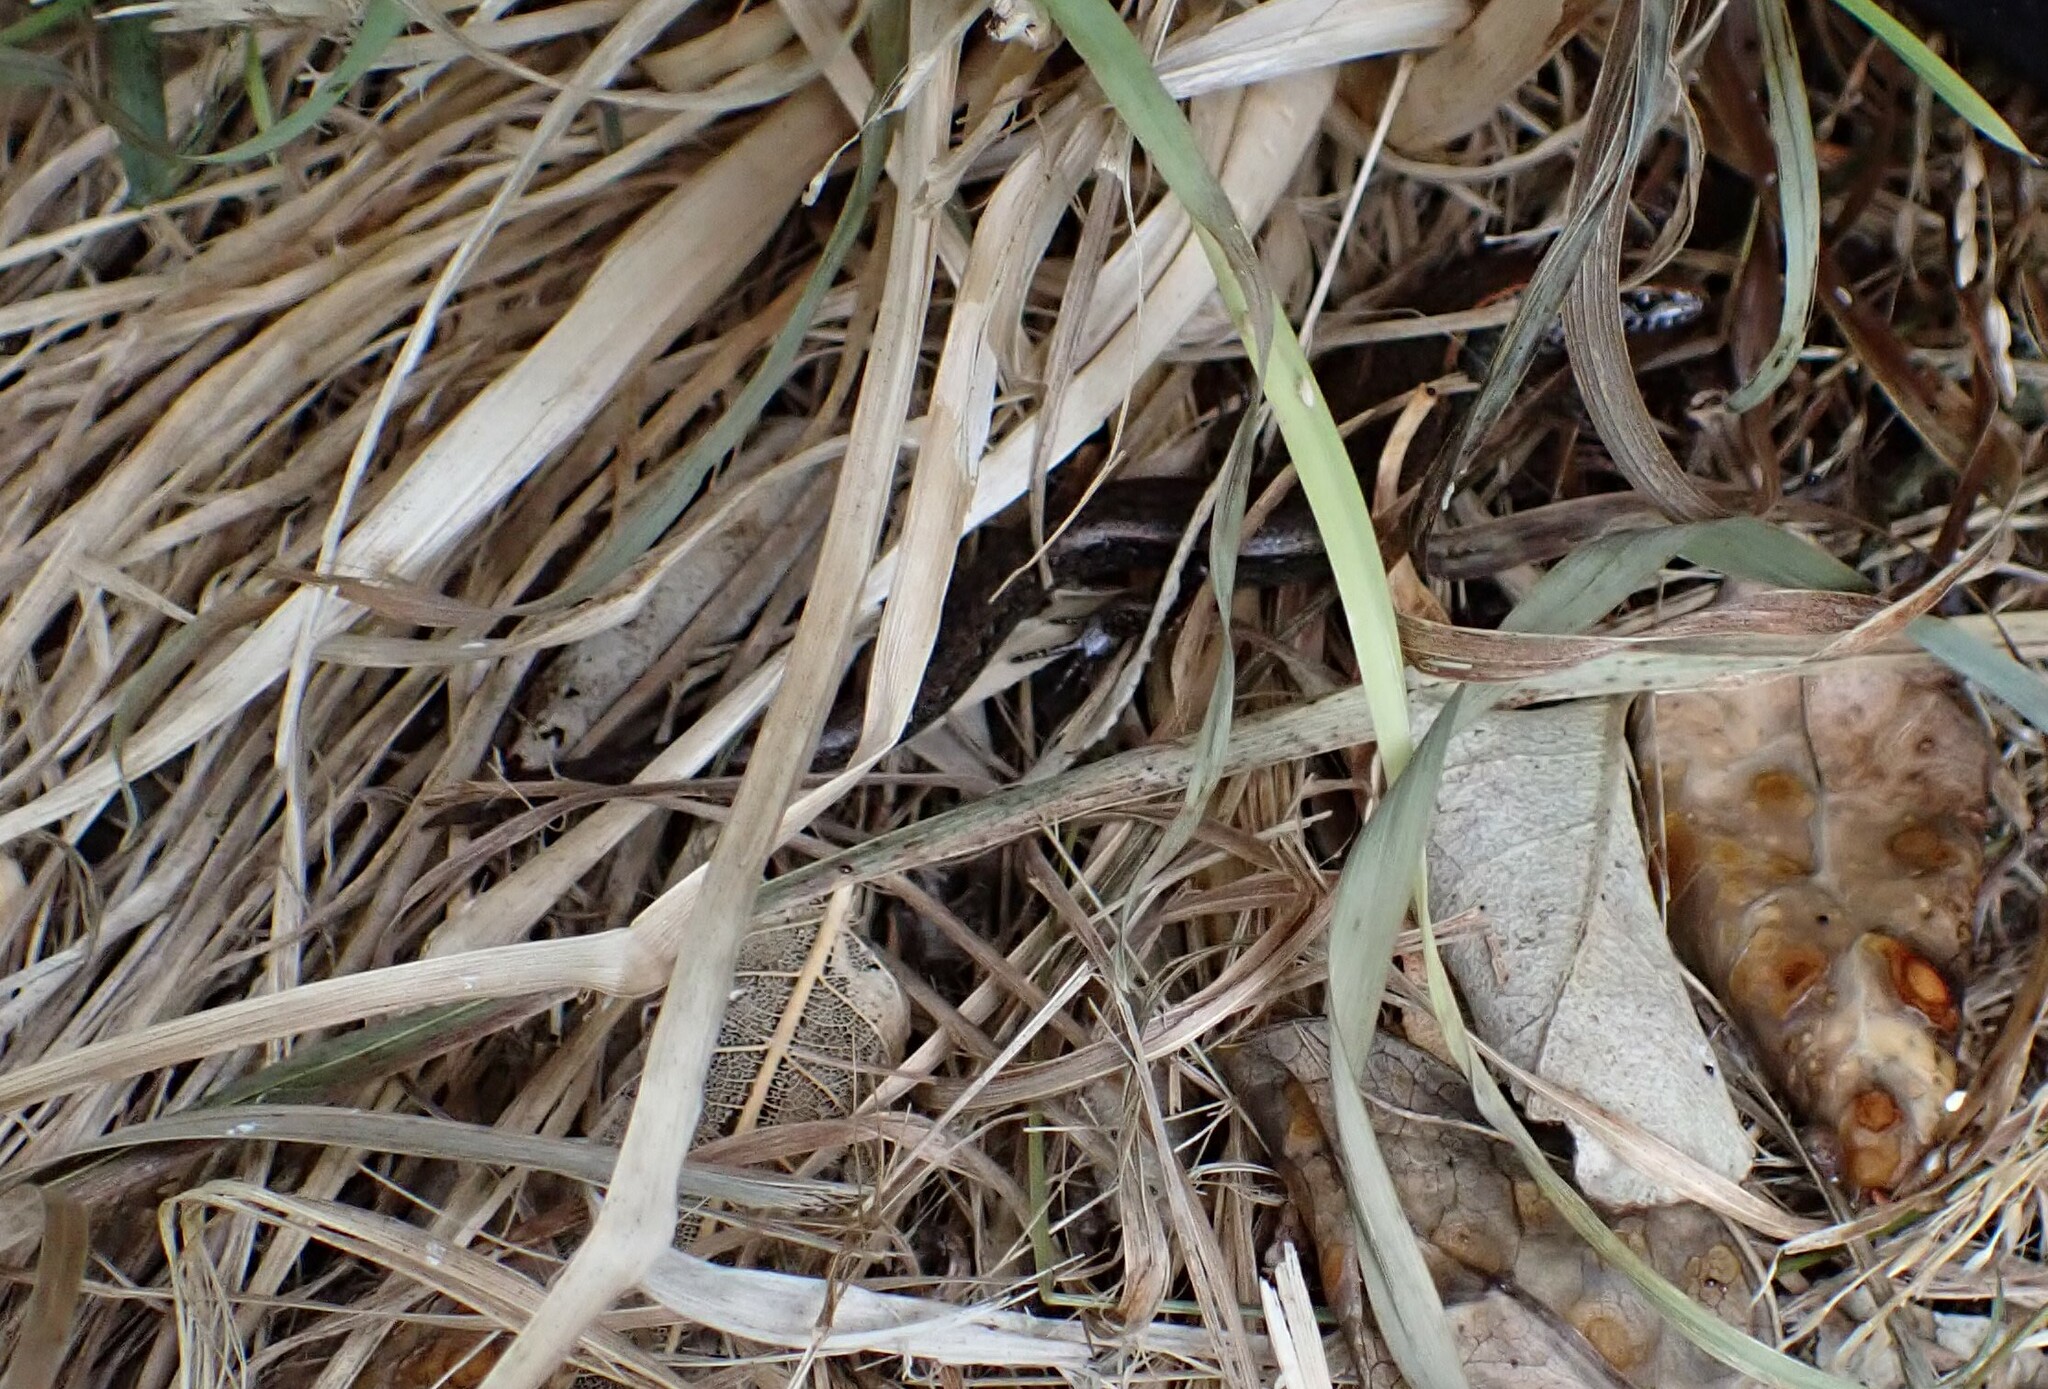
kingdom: Animalia
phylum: Chordata
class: Squamata
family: Scincidae
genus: Oligosoma
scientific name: Oligosoma aeneum
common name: Copper skink
